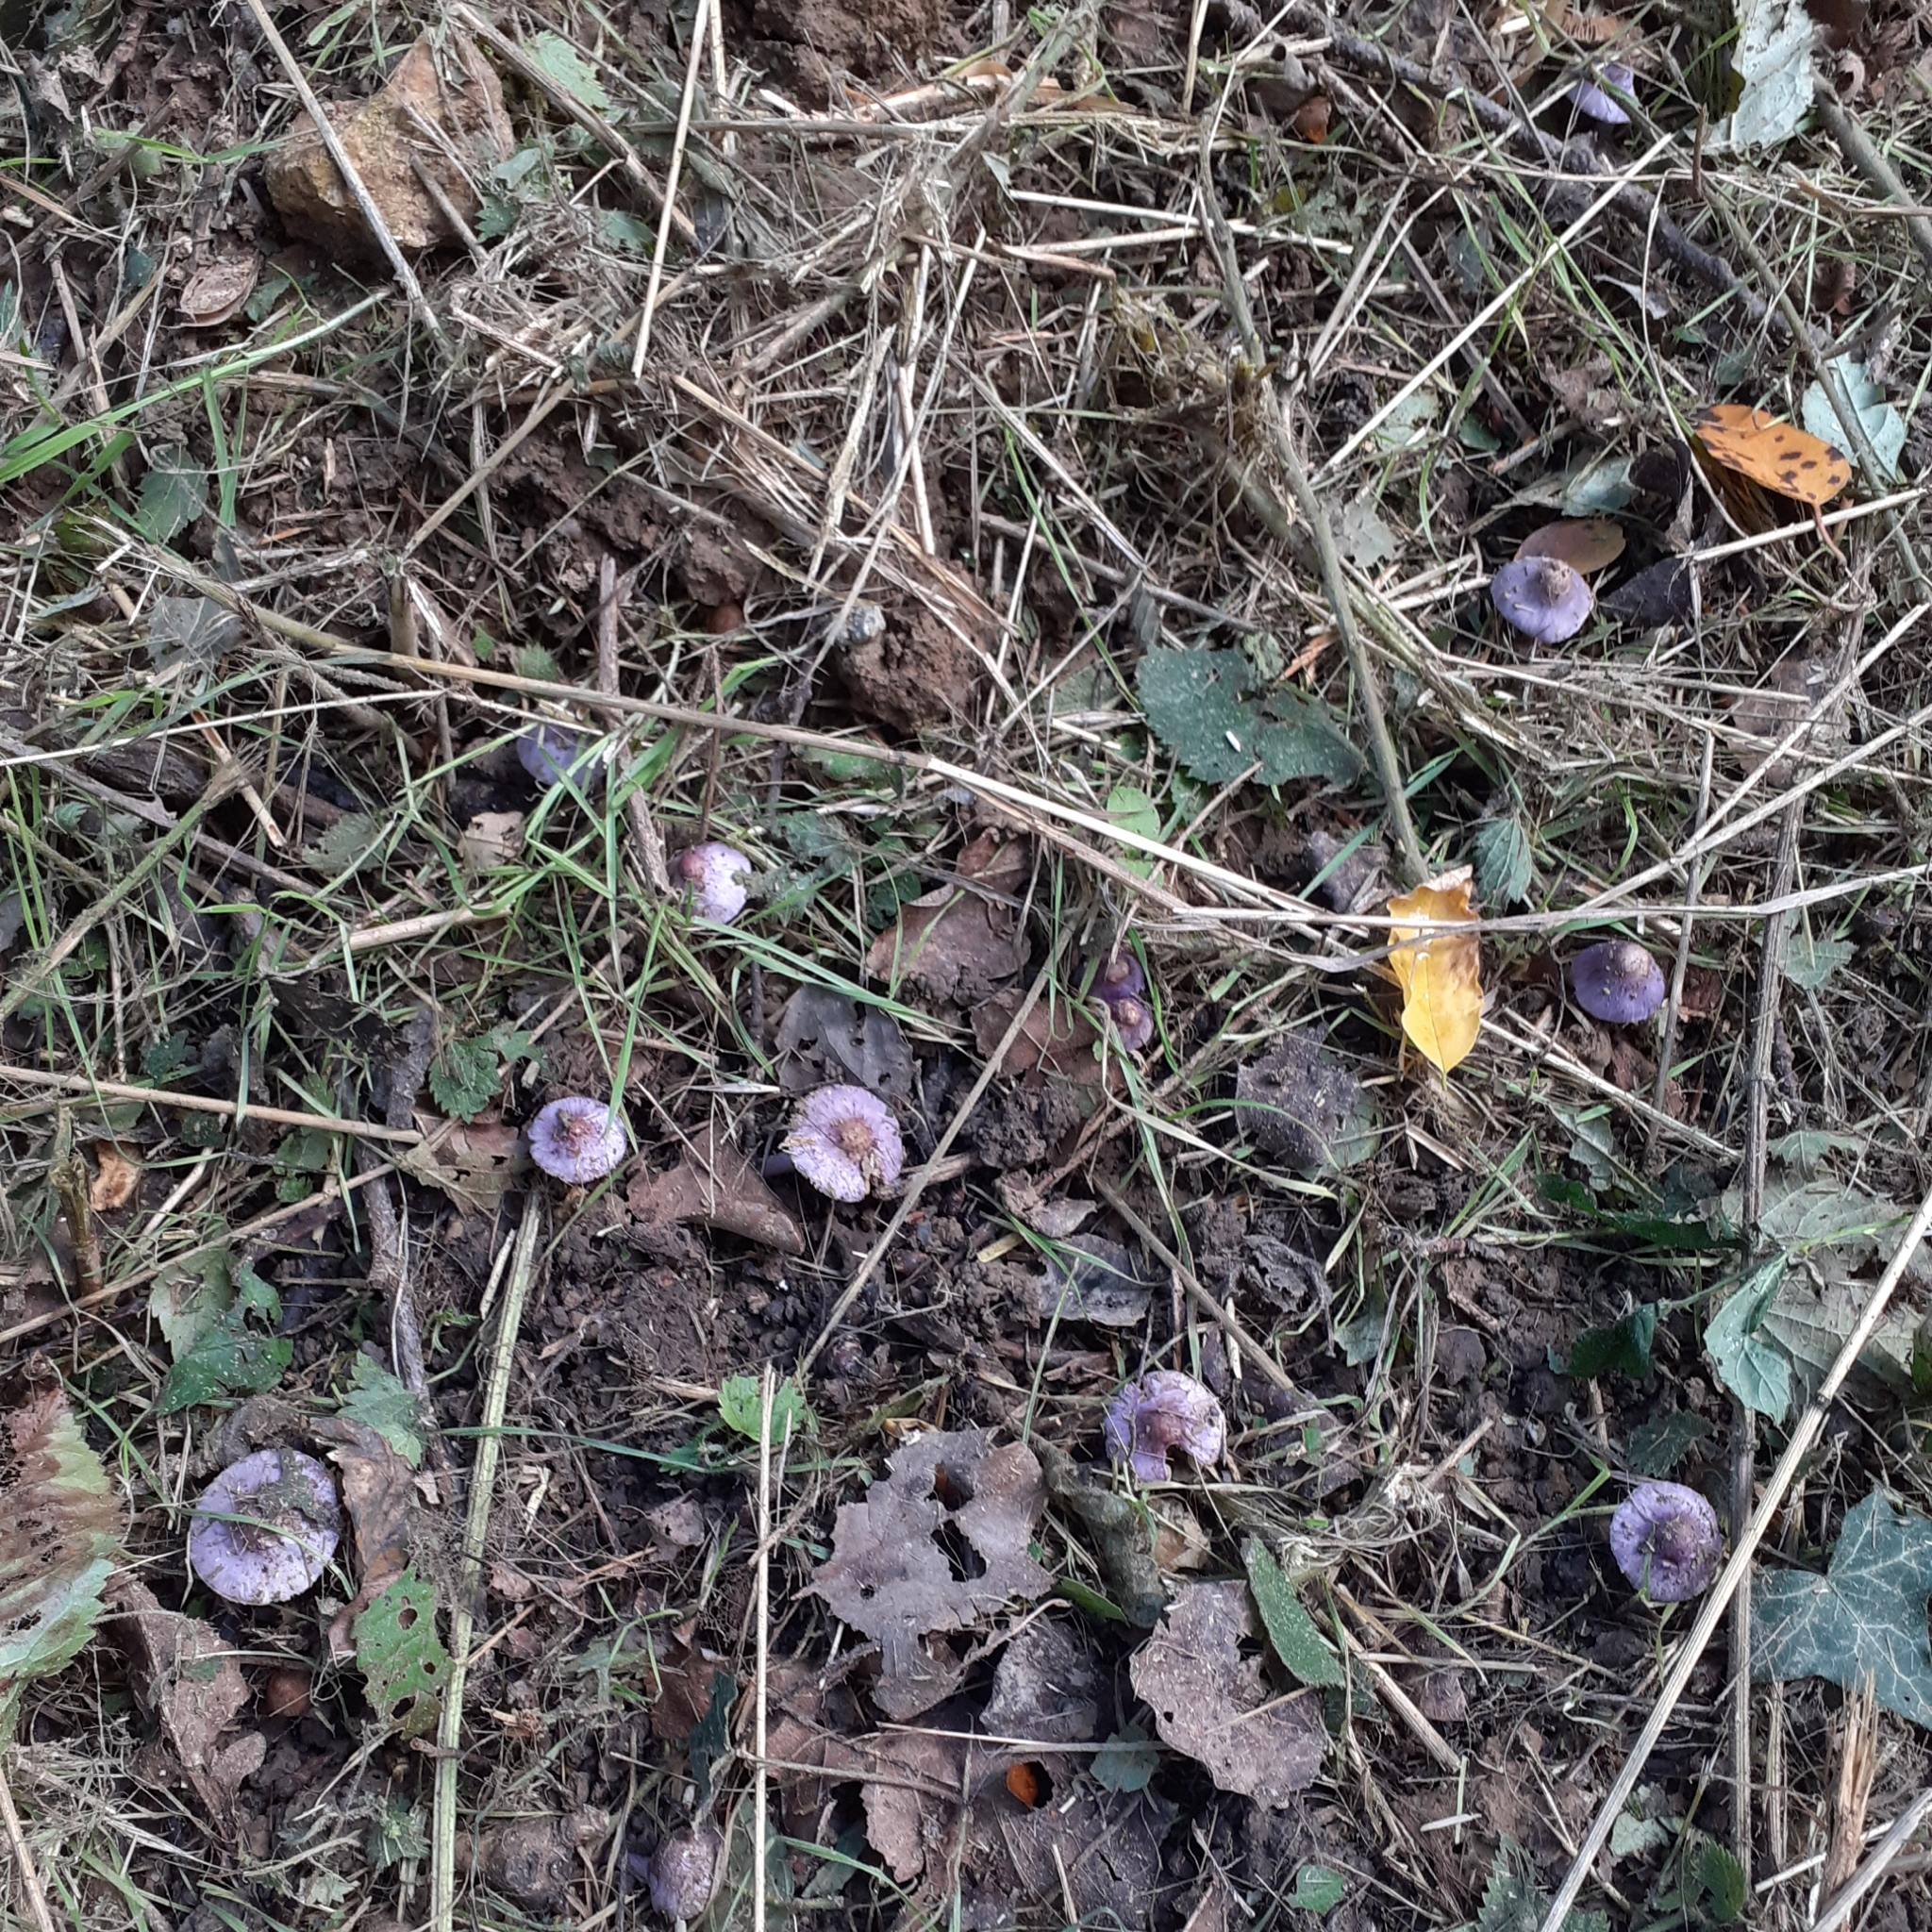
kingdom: Fungi
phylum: Basidiomycota
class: Agaricomycetes
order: Agaricales
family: Inocybaceae
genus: Inocybe
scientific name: Inocybe geophylla
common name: White fibrecap
